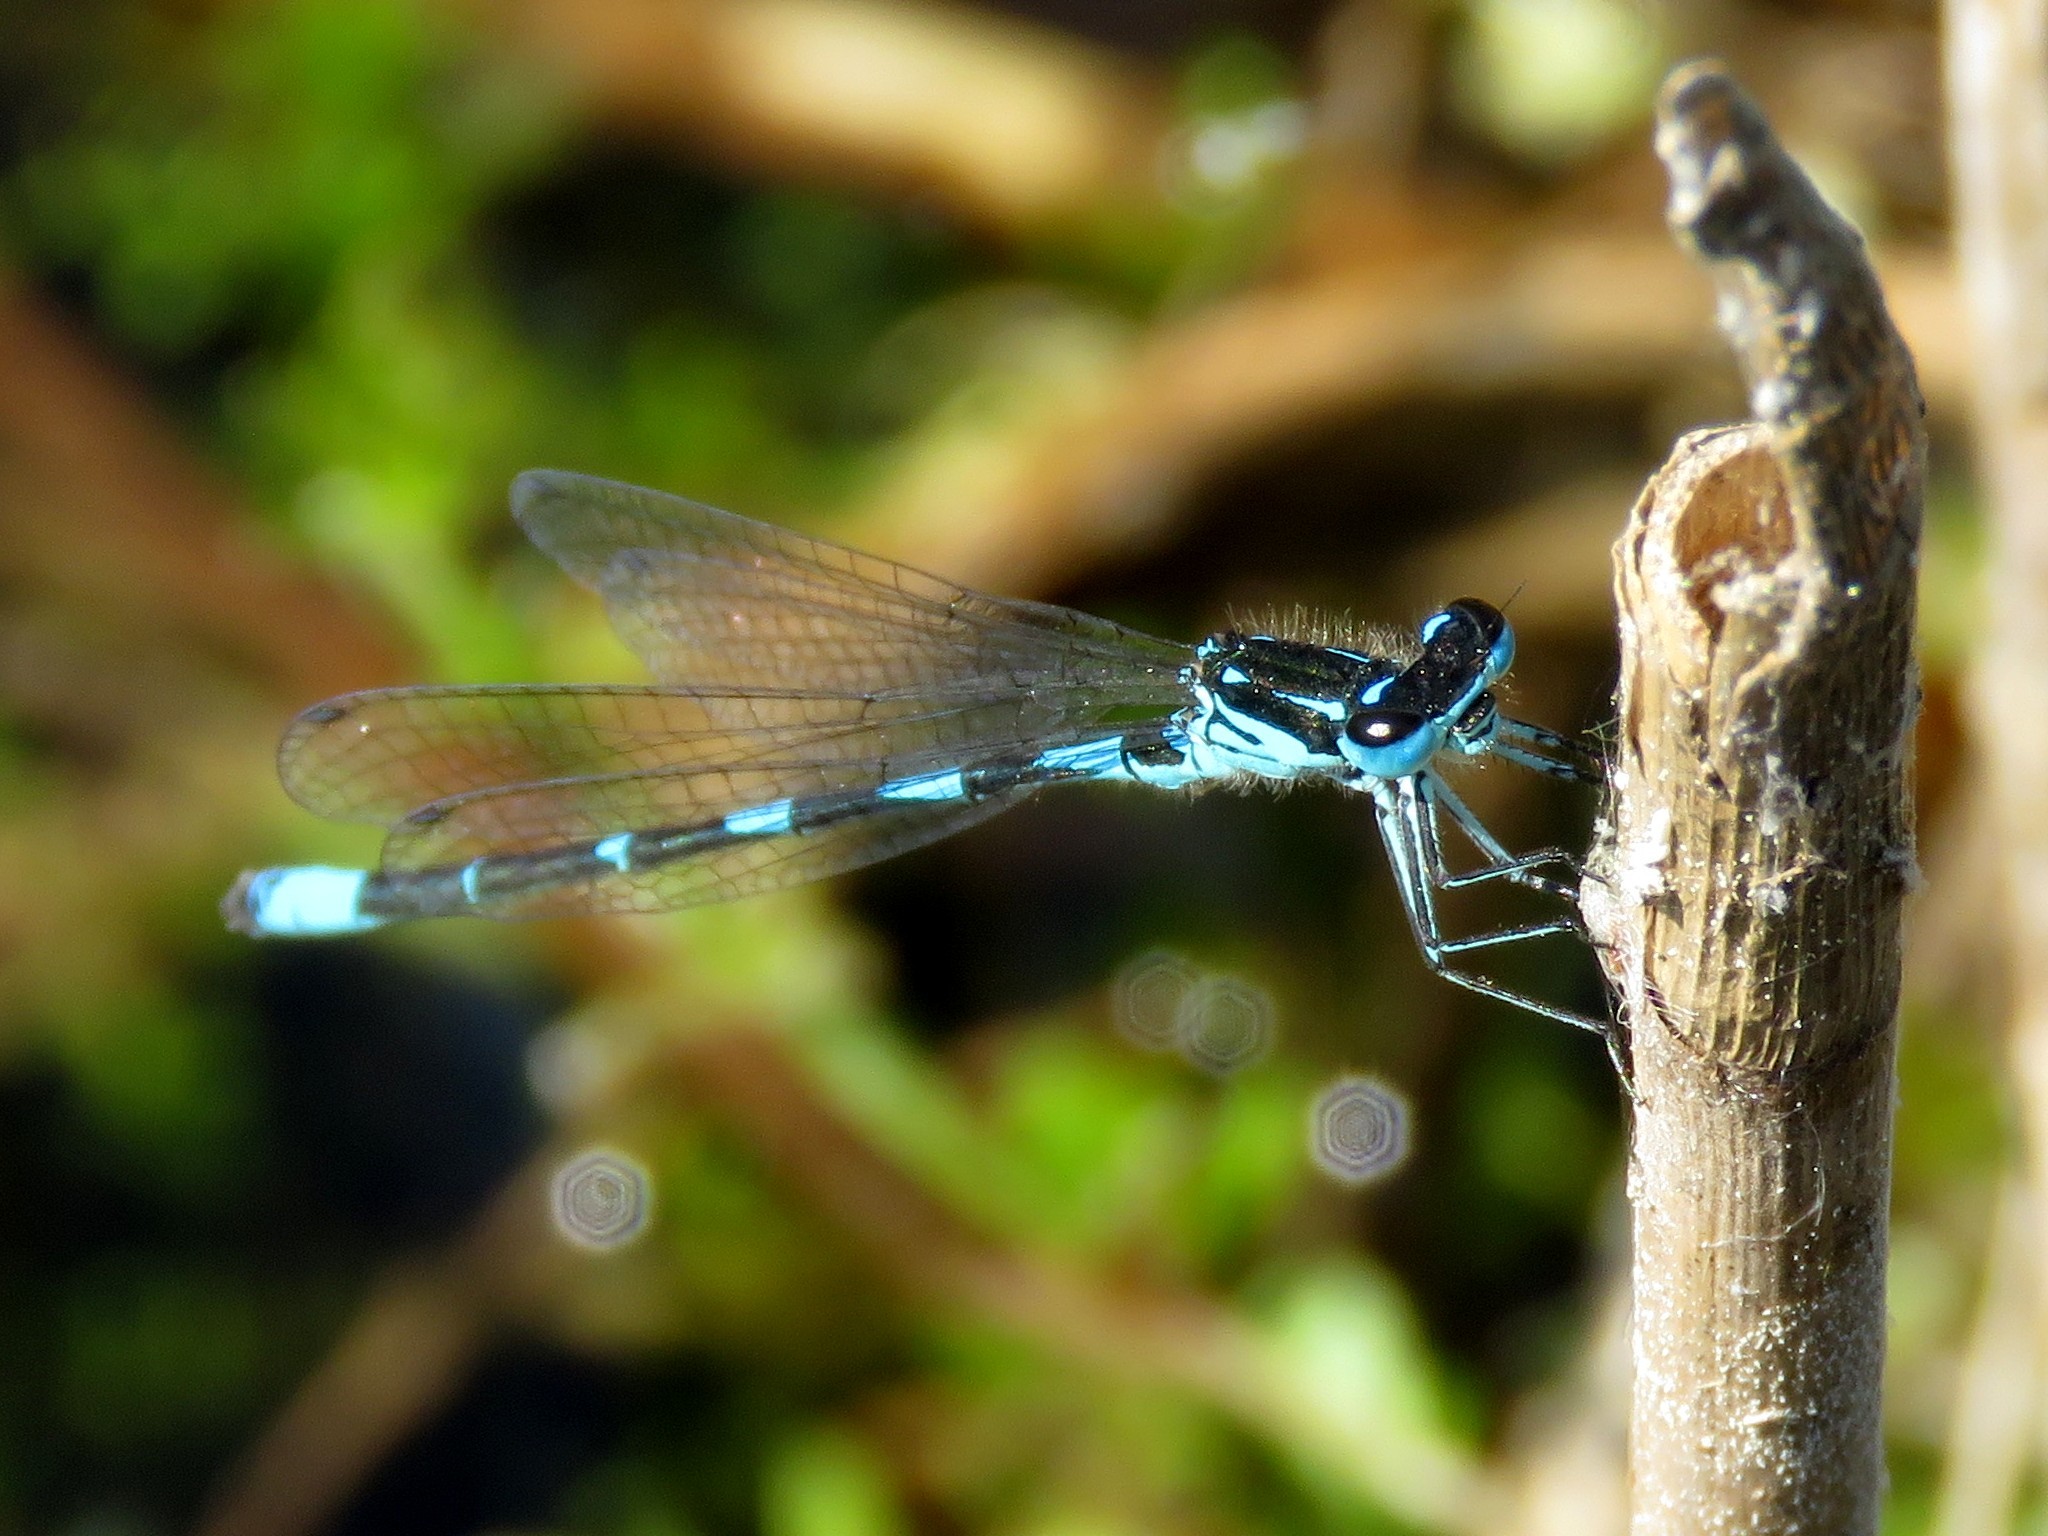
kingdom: Animalia
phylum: Arthropoda
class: Insecta
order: Odonata
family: Coenagrionidae
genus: Coenagrion
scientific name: Coenagrion pulchellum
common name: Variable bluet
